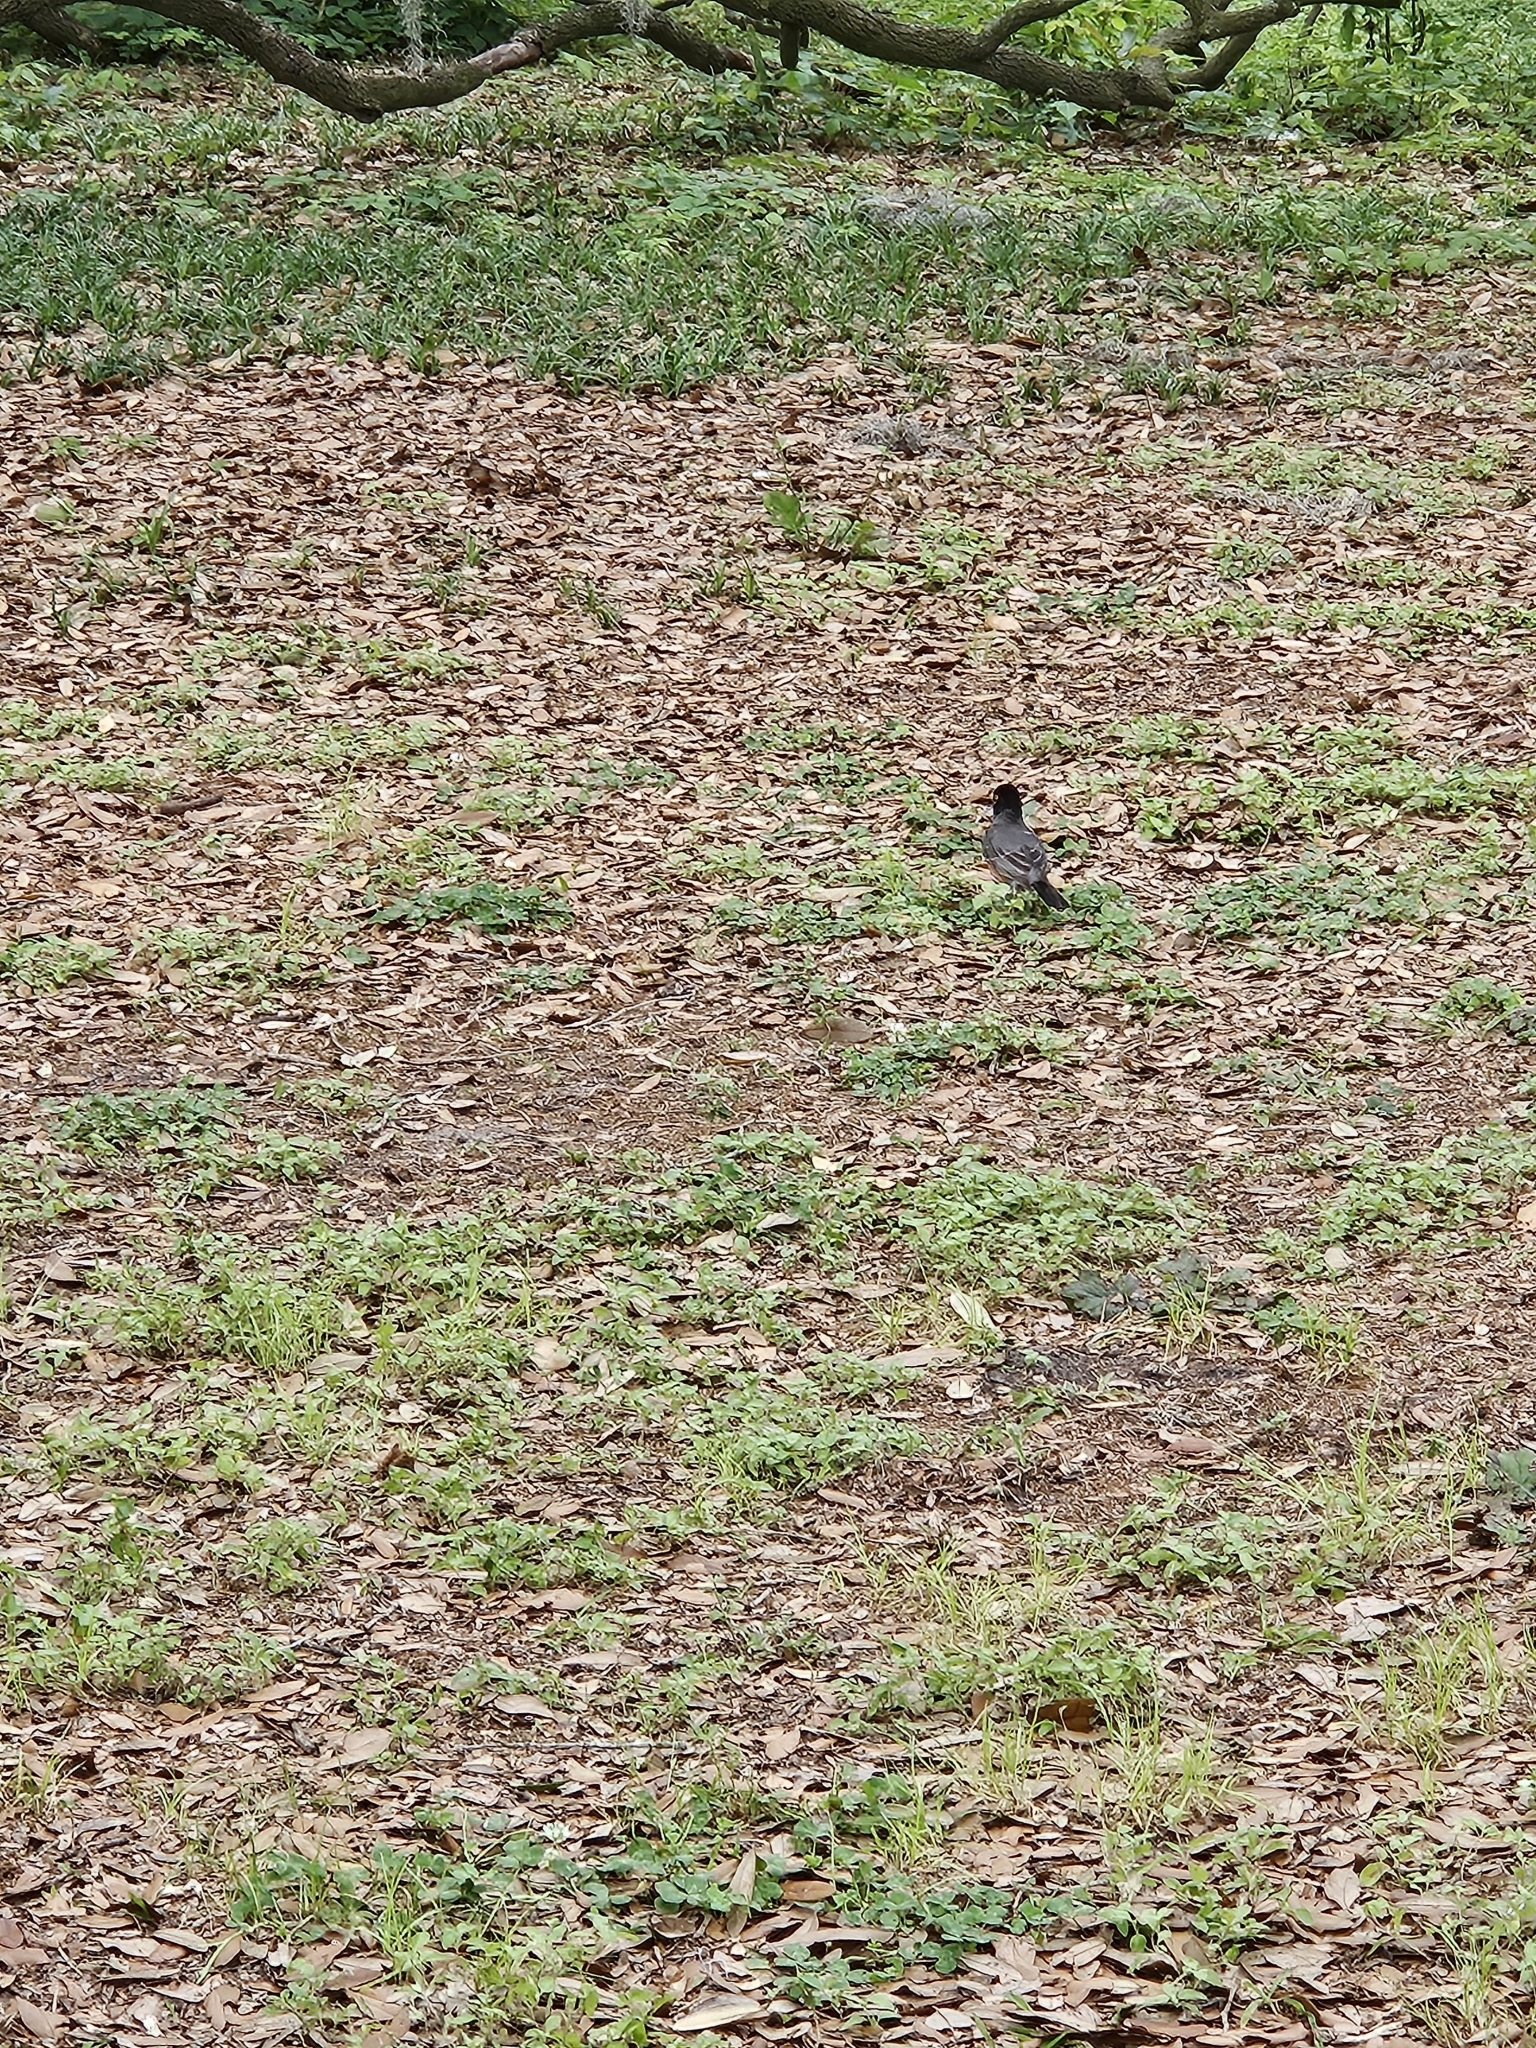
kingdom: Animalia
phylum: Chordata
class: Aves
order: Passeriformes
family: Turdidae
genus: Turdus
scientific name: Turdus migratorius
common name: American robin
